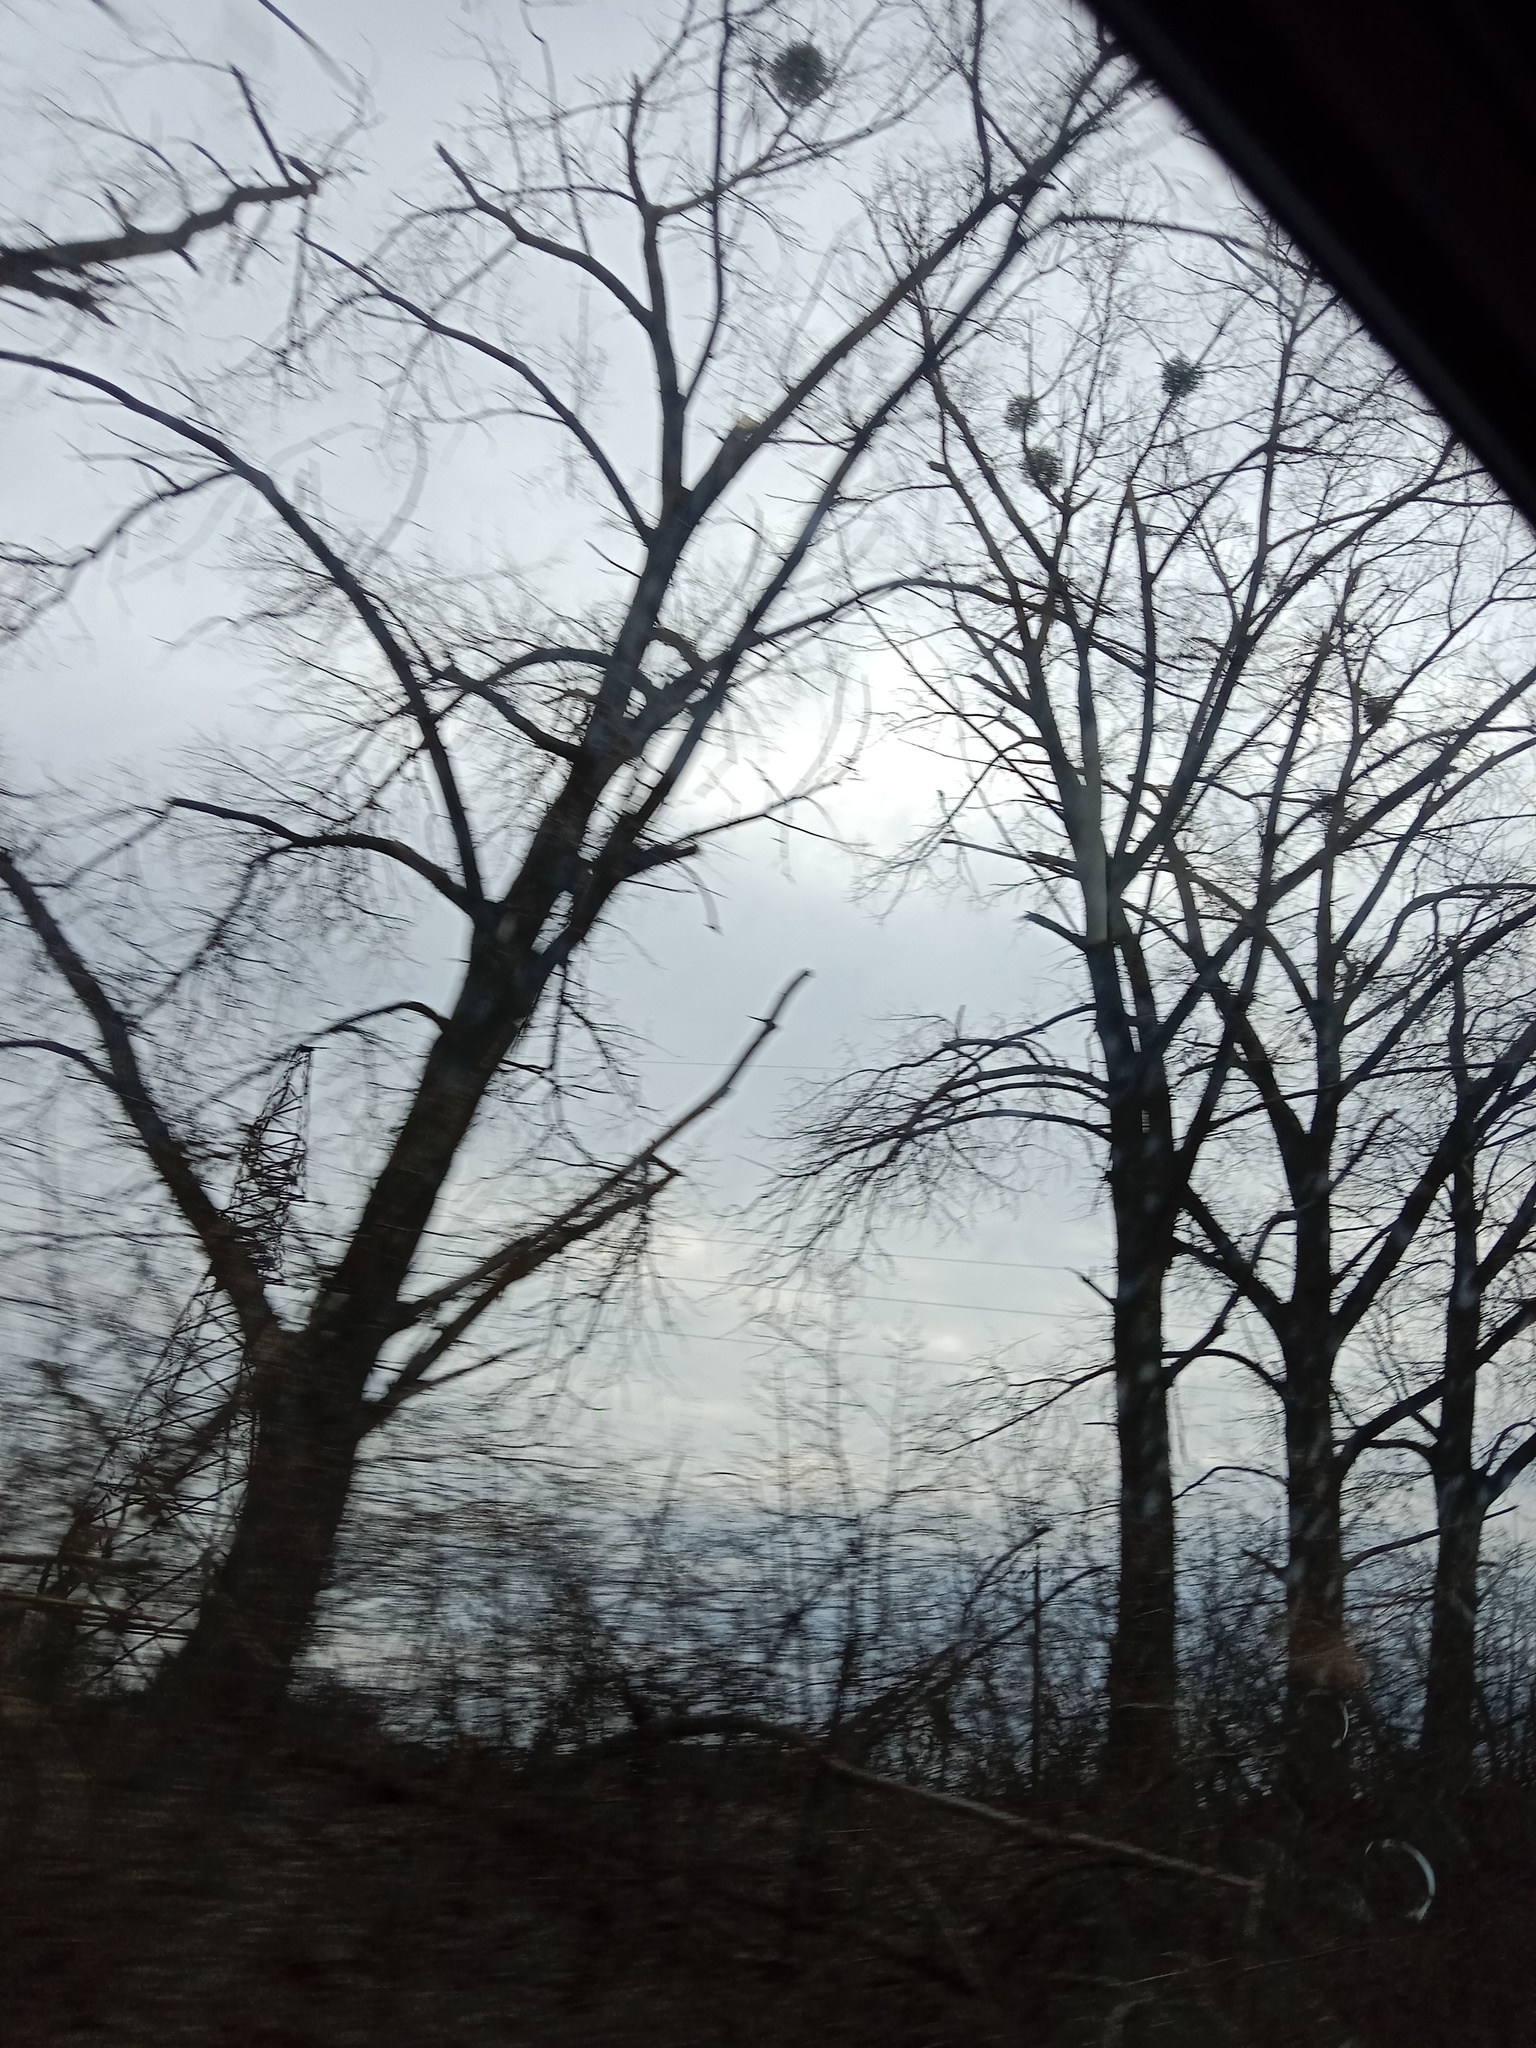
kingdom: Plantae
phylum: Tracheophyta
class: Magnoliopsida
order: Santalales
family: Viscaceae
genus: Viscum
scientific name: Viscum album
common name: Mistletoe
